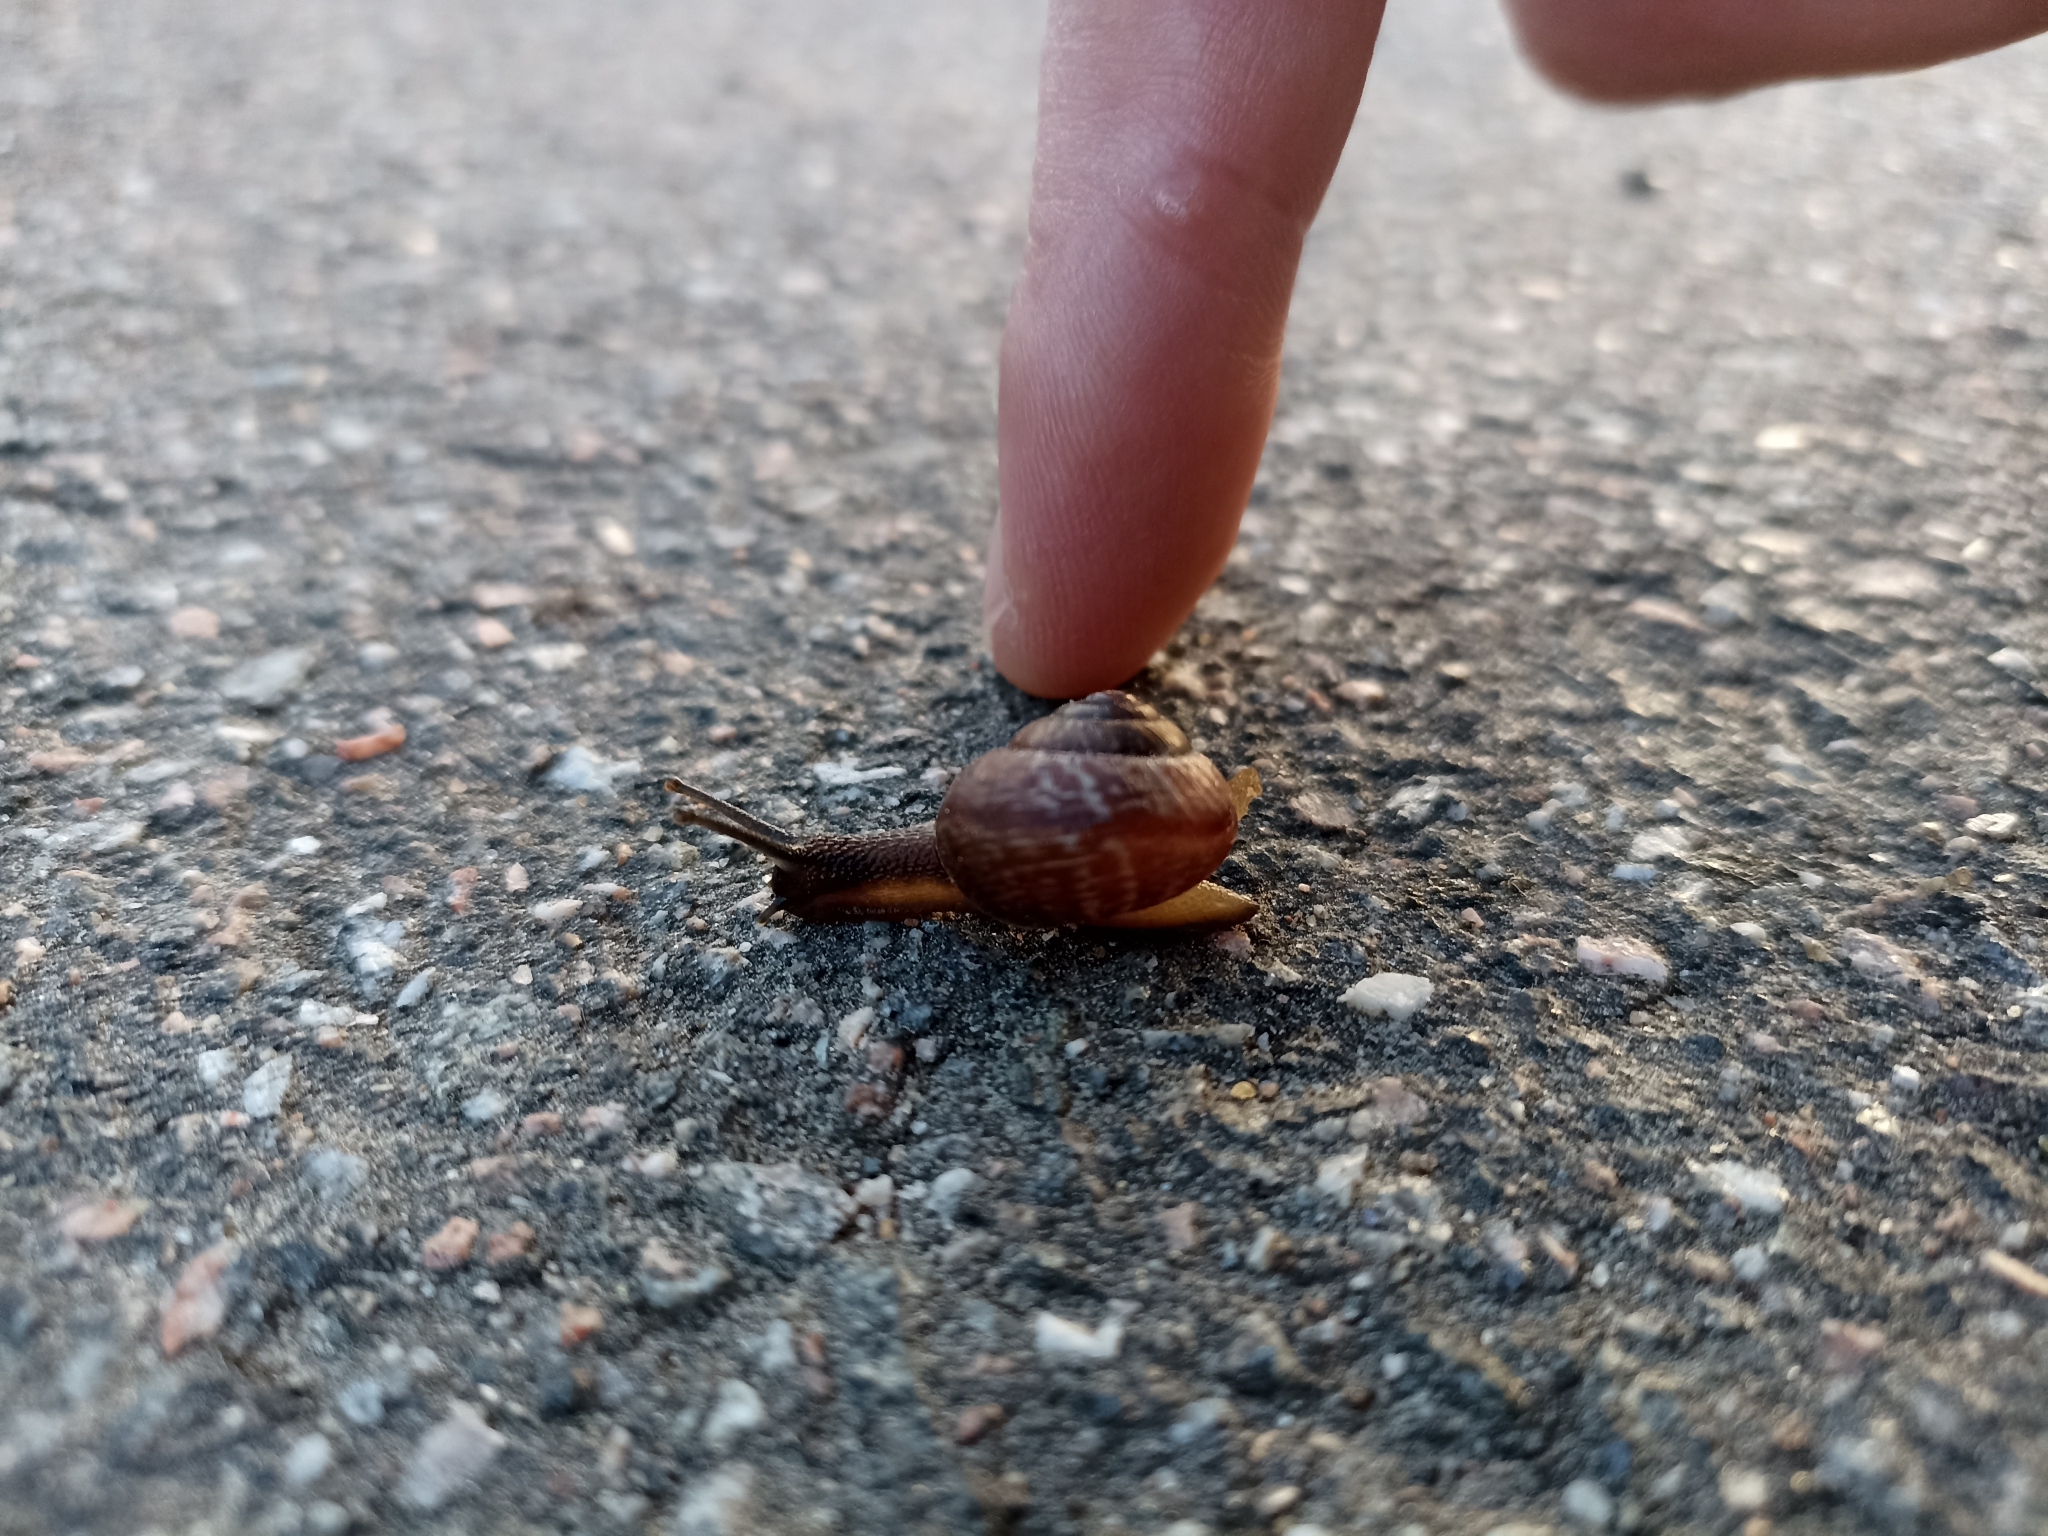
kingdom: Animalia
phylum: Mollusca
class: Gastropoda
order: Stylommatophora
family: Helicidae
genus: Arianta
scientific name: Arianta arbustorum
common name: Copse snail
